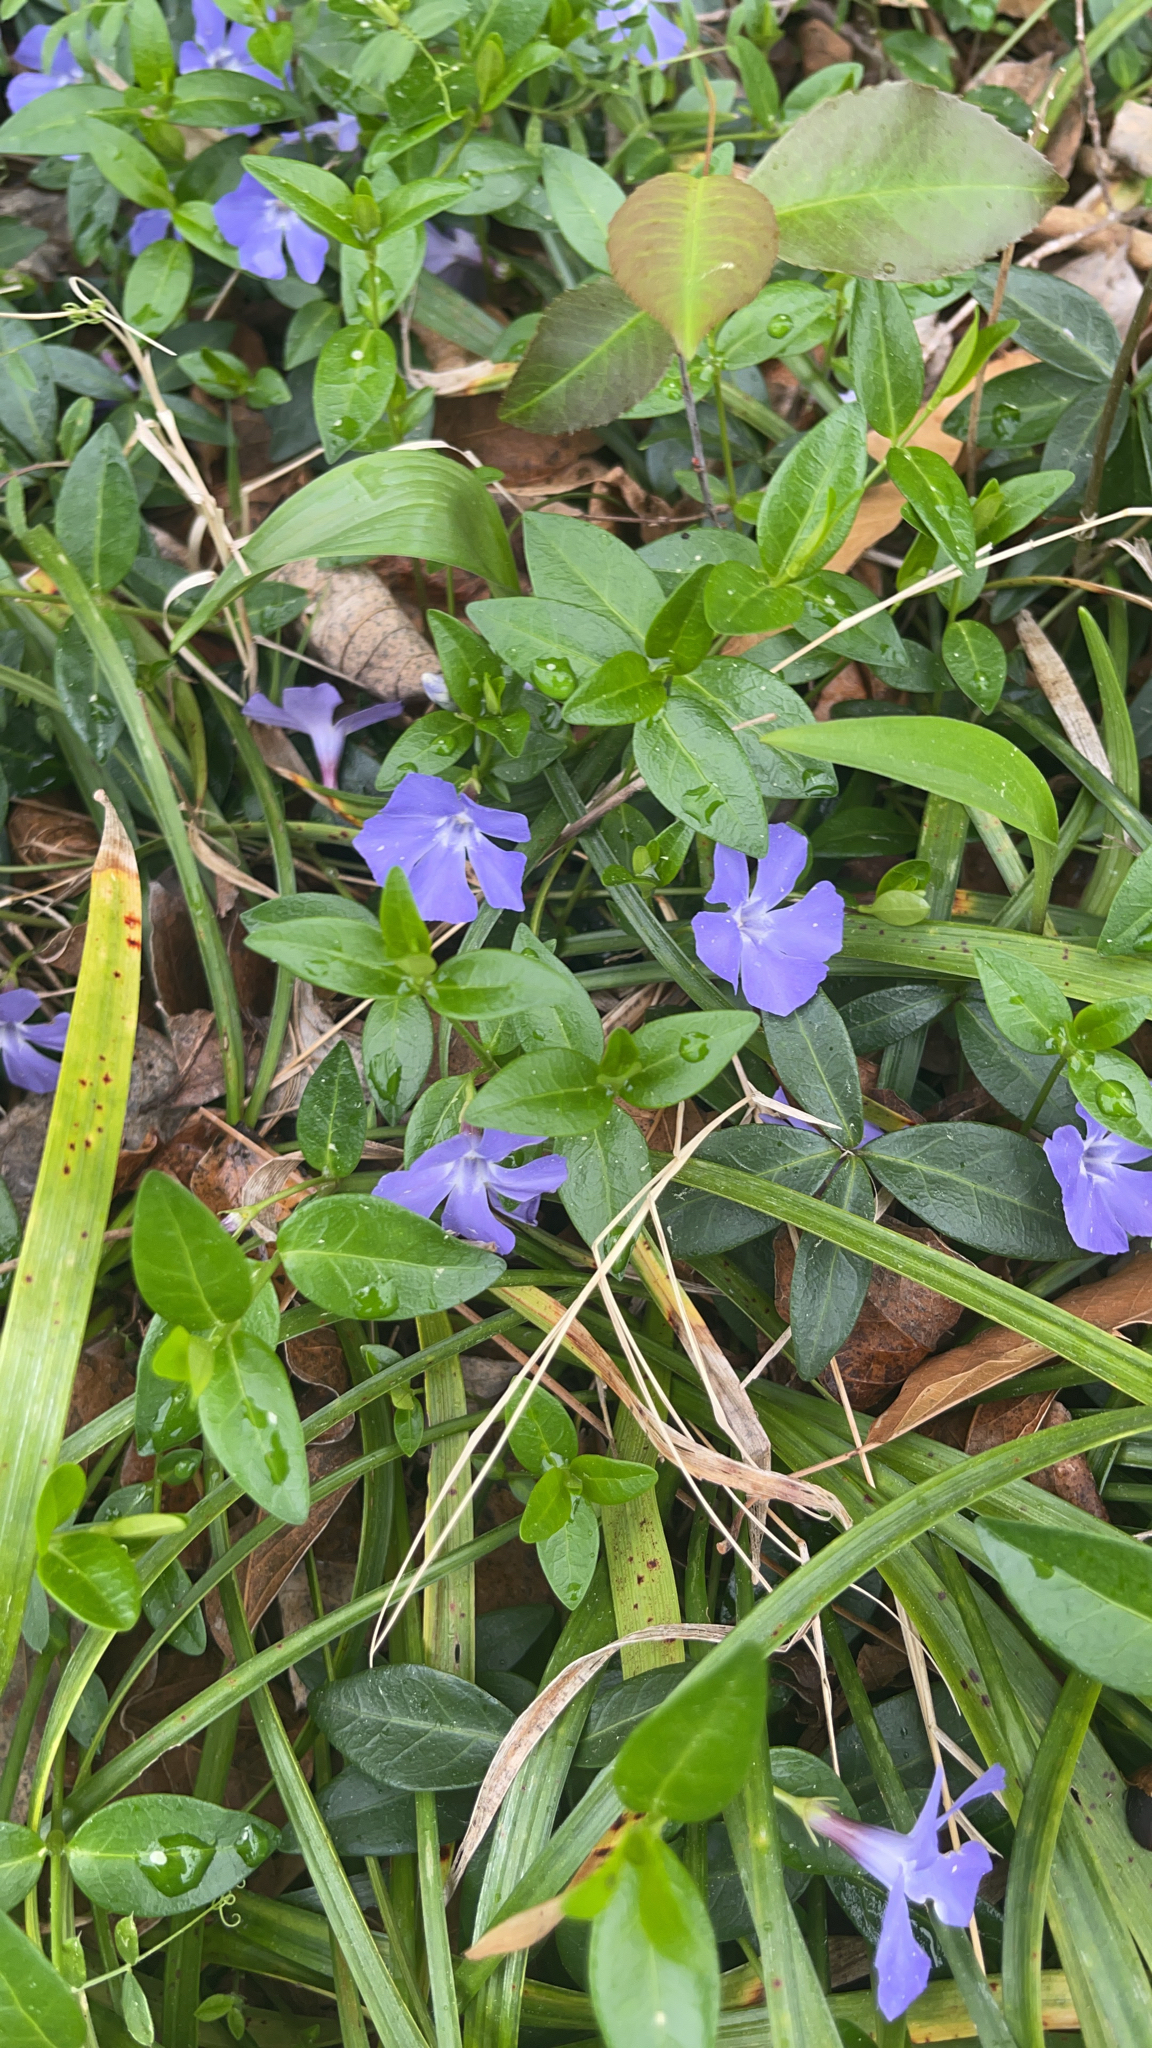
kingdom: Plantae
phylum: Tracheophyta
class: Magnoliopsida
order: Gentianales
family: Apocynaceae
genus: Vinca
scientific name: Vinca minor
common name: Lesser periwinkle
